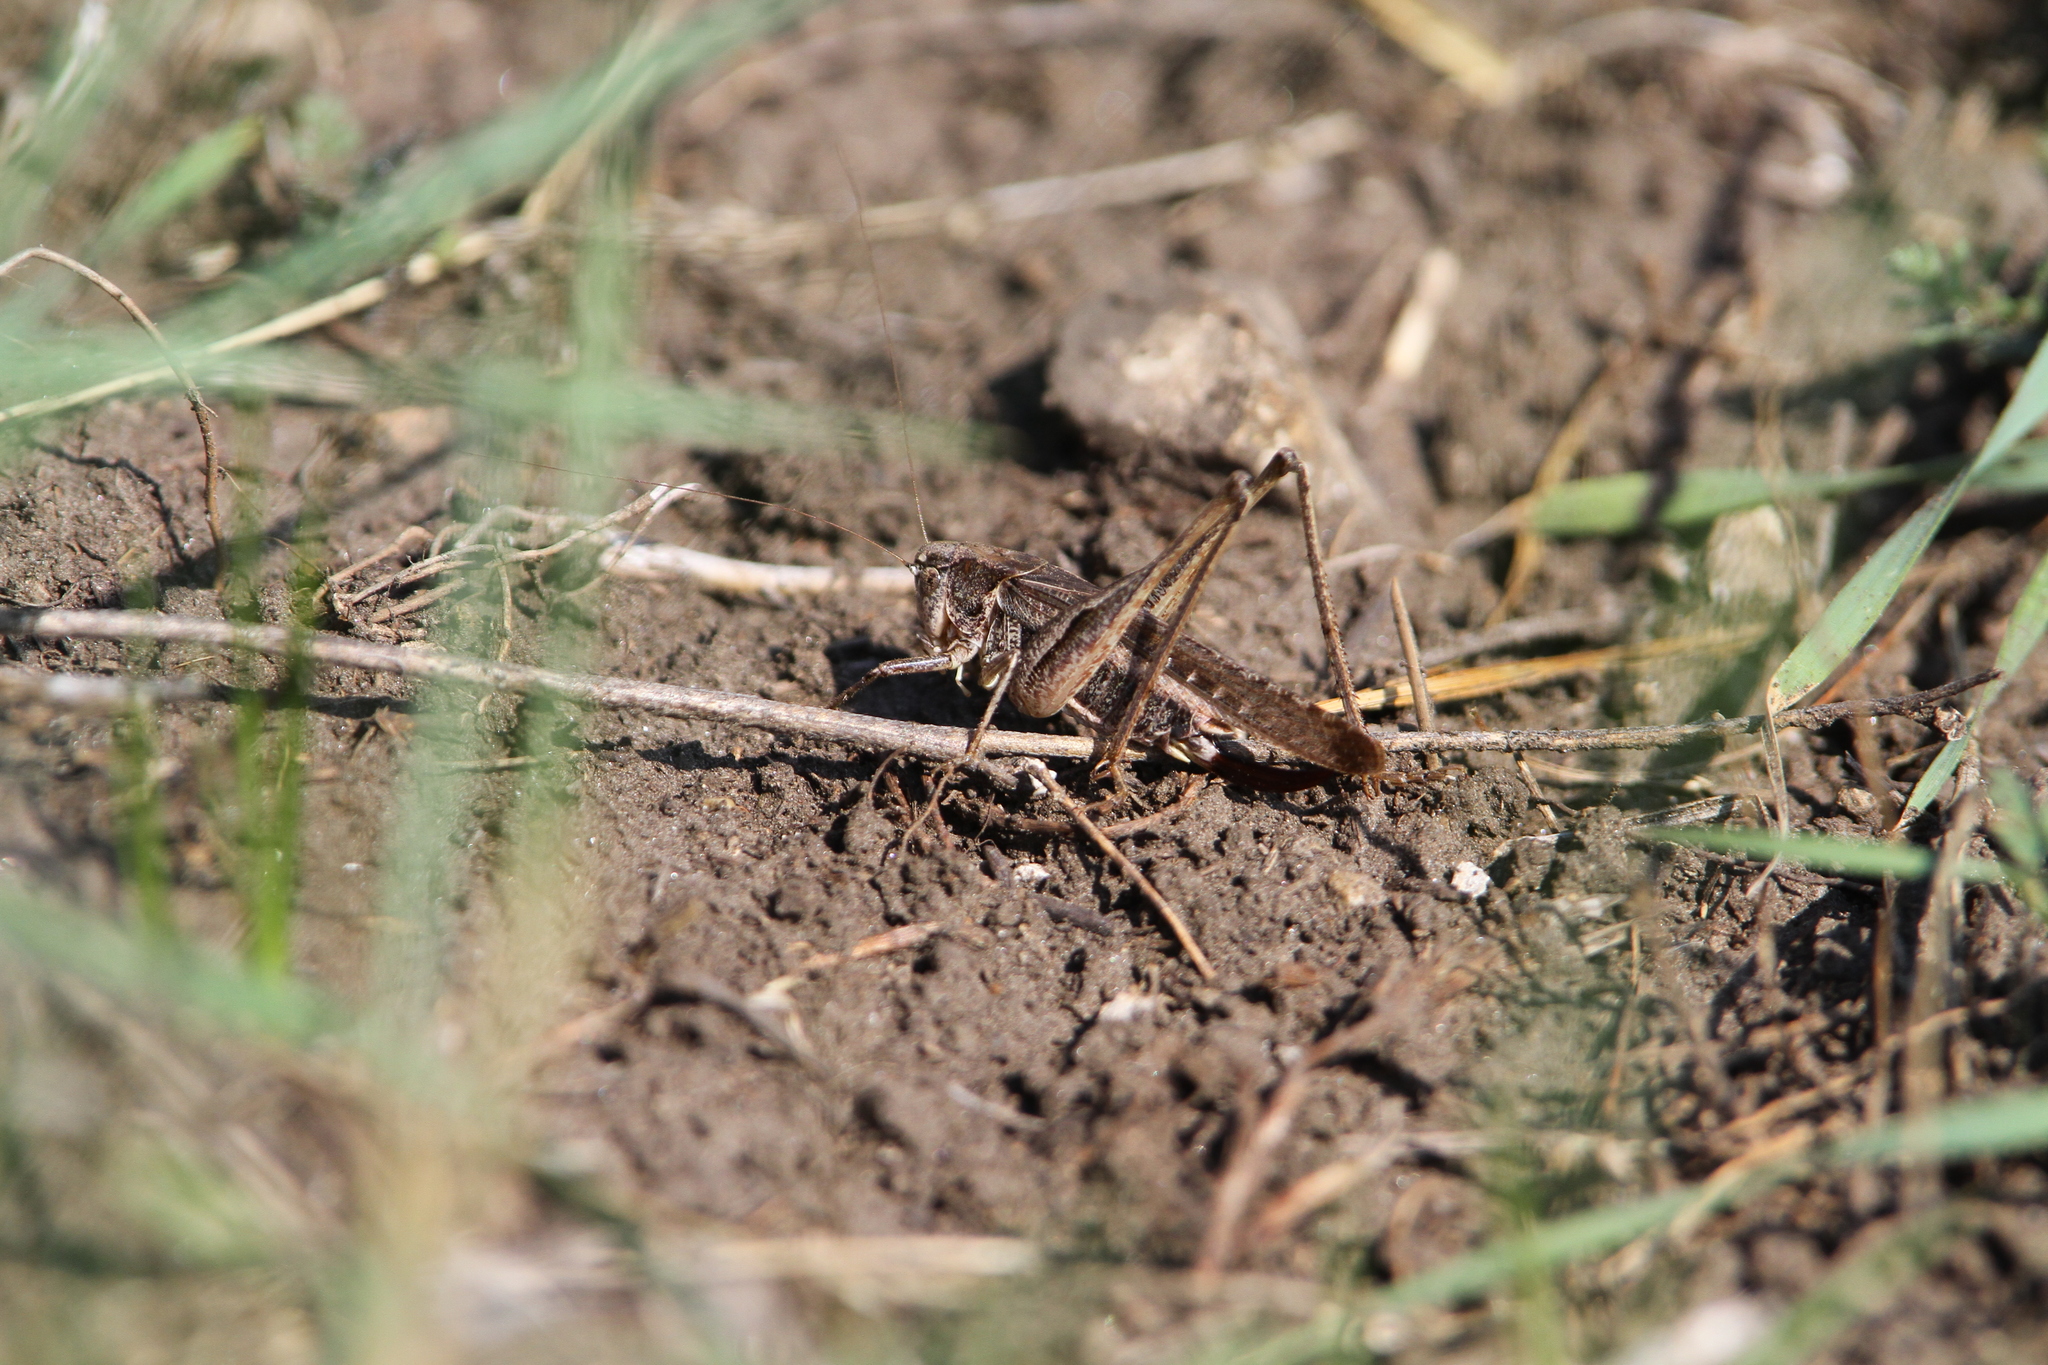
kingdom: Animalia
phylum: Arthropoda
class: Insecta
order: Orthoptera
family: Tettigoniidae
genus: Platycleis
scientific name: Platycleis affinis
